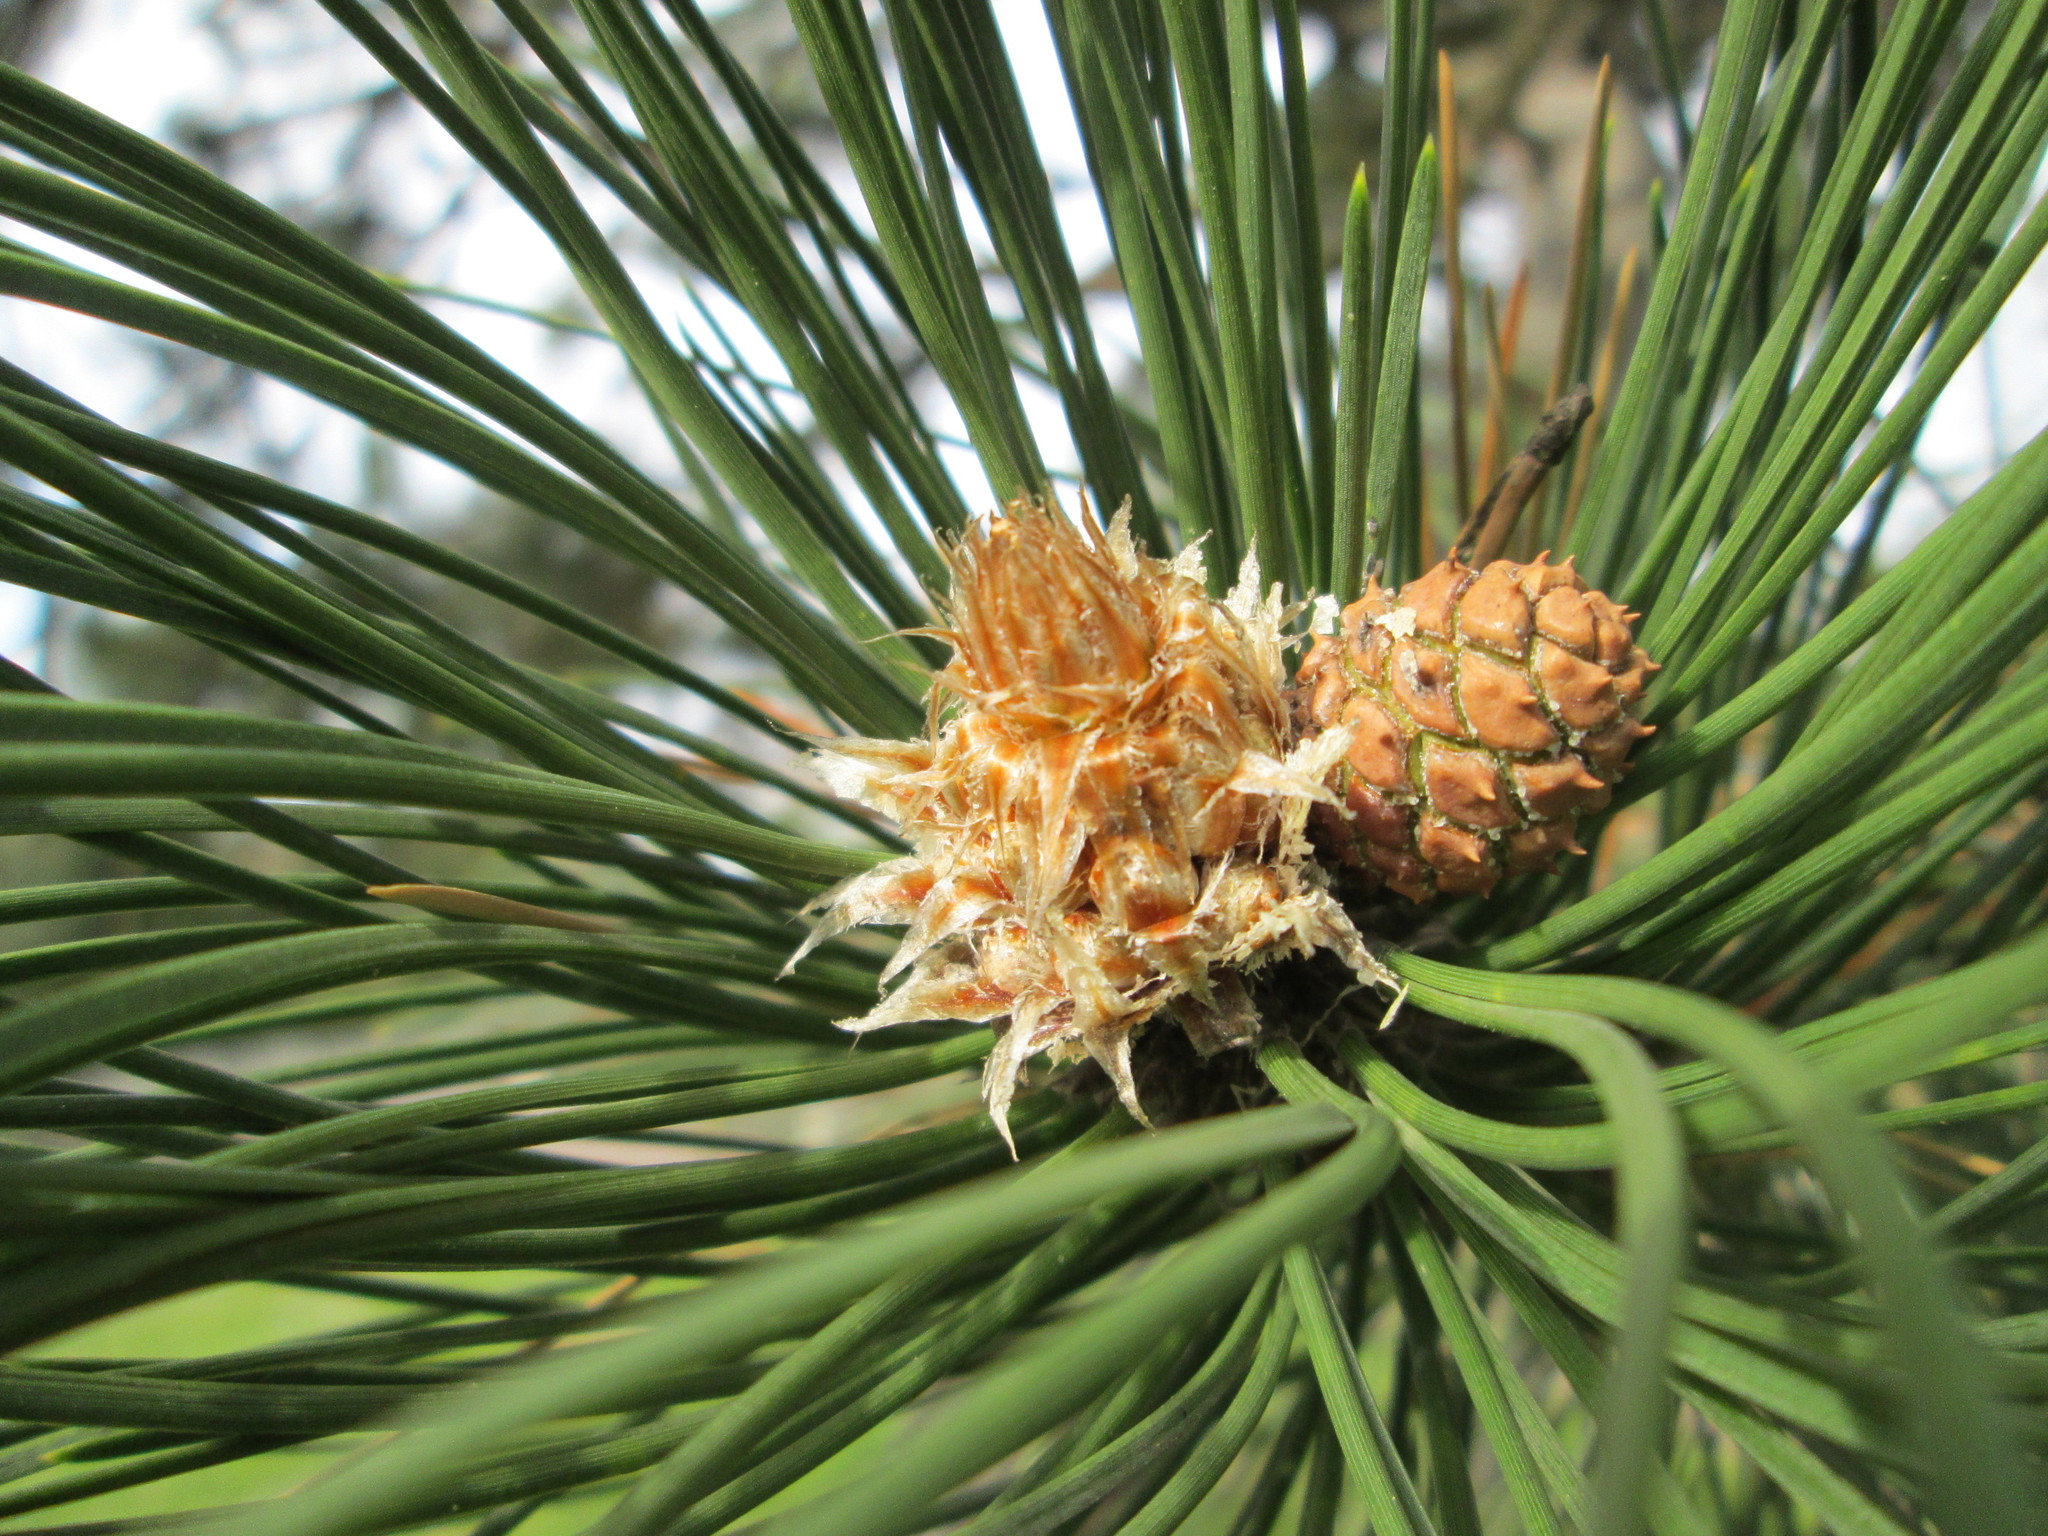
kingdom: Plantae
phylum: Tracheophyta
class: Pinopsida
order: Pinales
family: Pinaceae
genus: Pinus
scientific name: Pinus nigra
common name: Austrian pine
